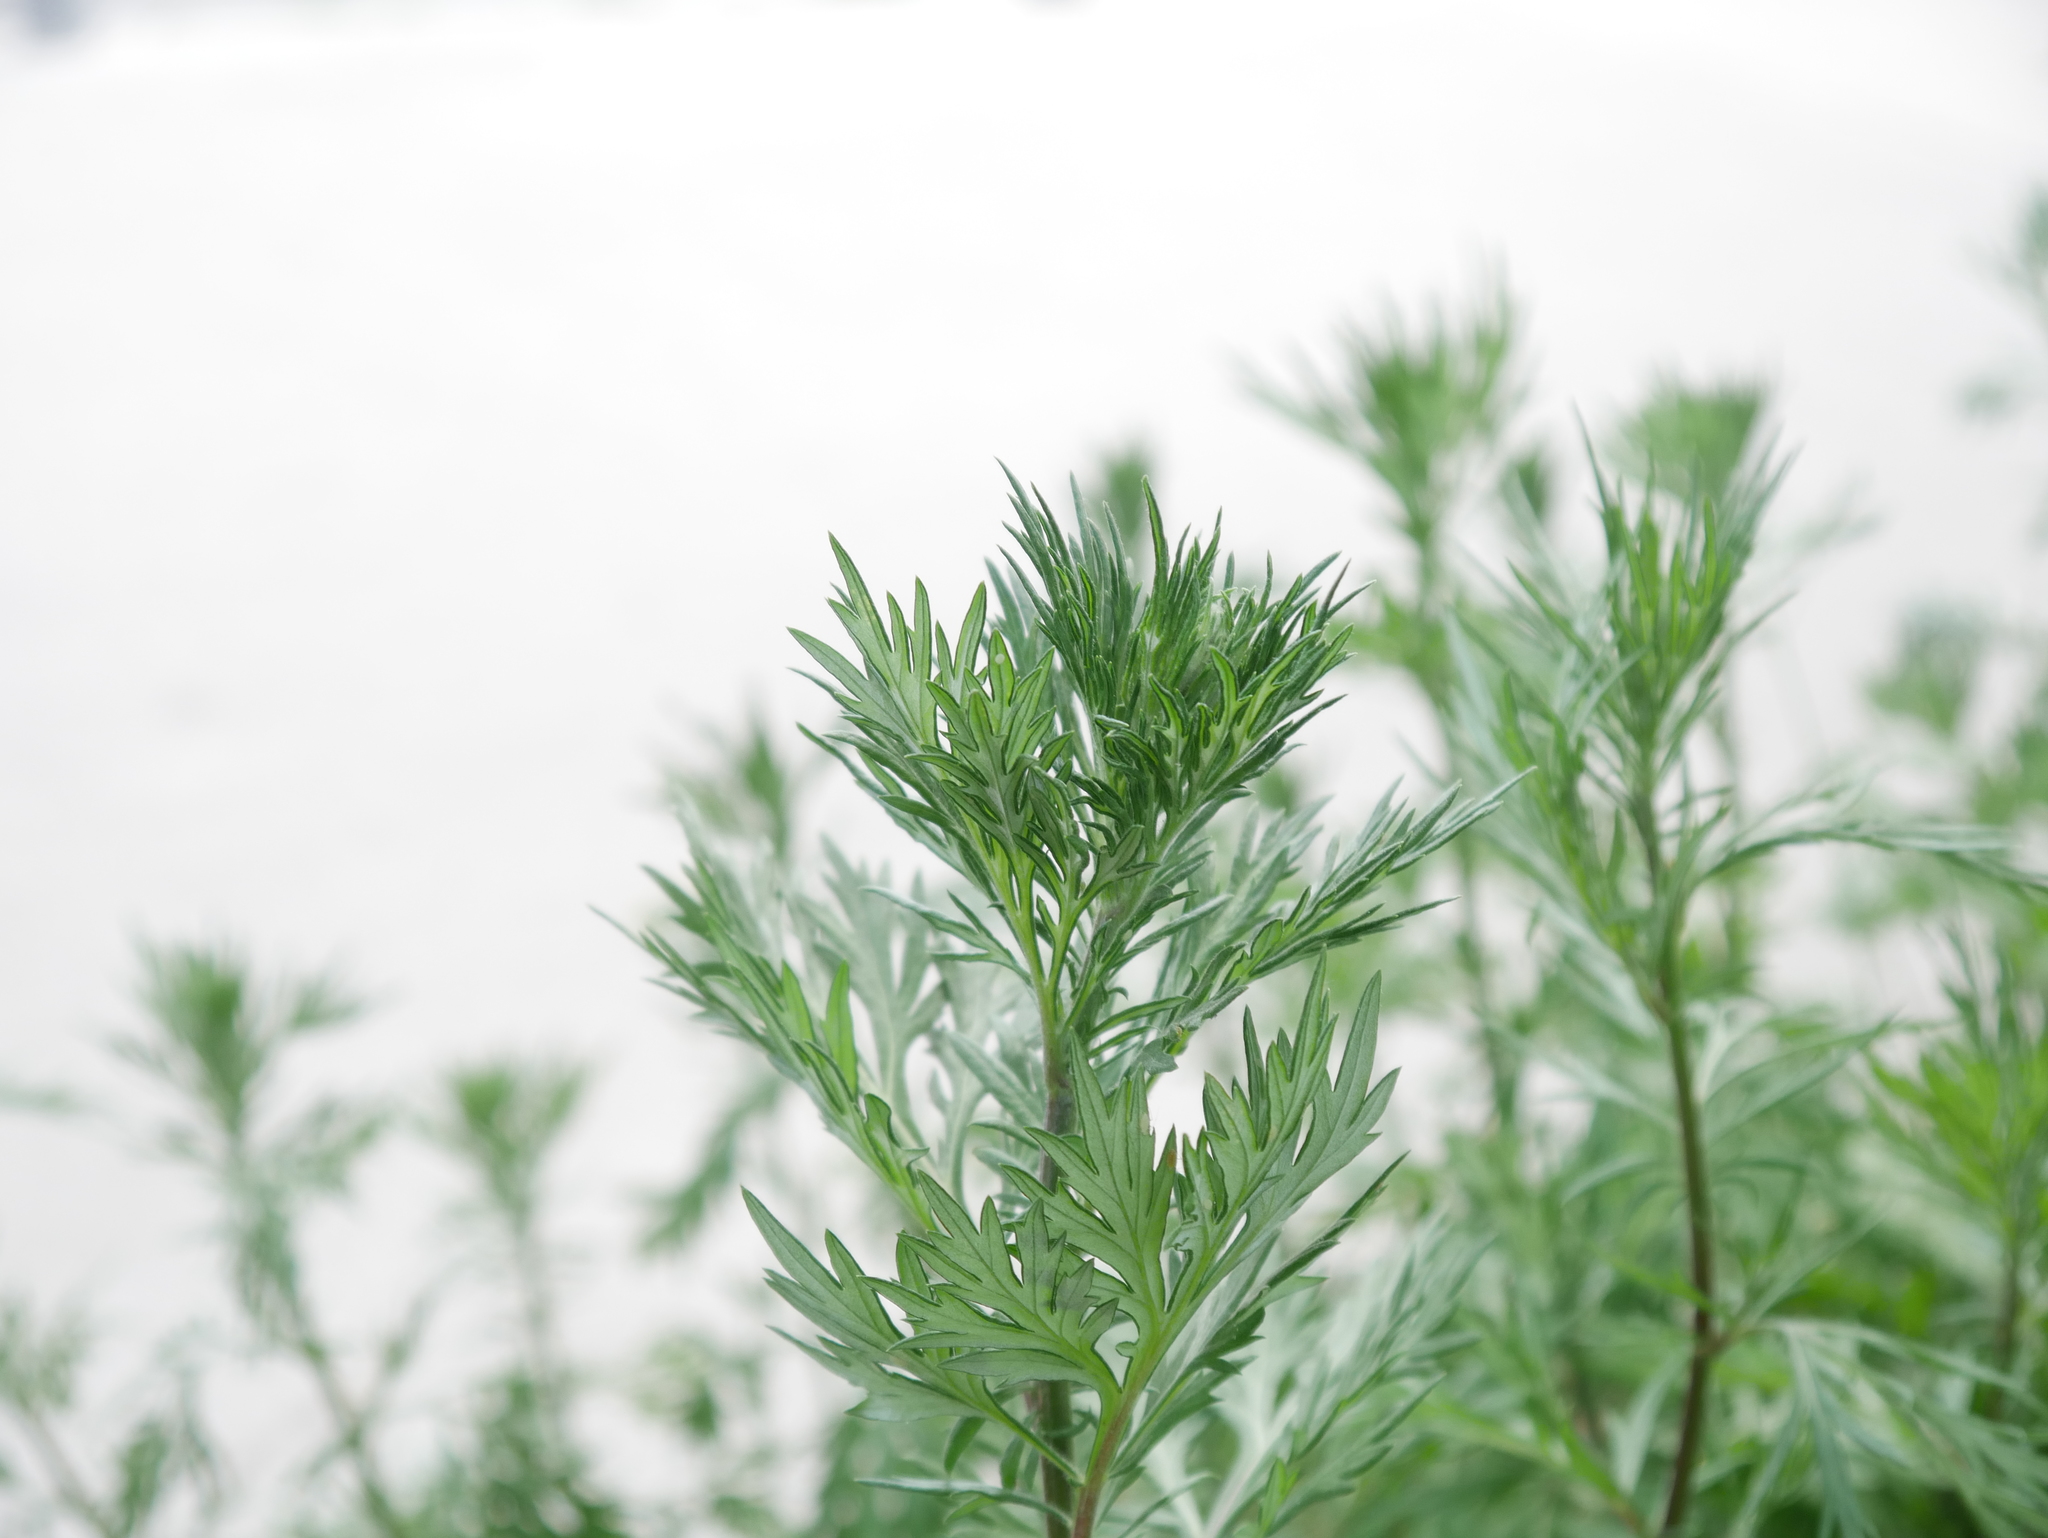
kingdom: Plantae
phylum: Tracheophyta
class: Magnoliopsida
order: Asterales
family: Asteraceae
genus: Artemisia
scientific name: Artemisia vulgaris
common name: Mugwort
